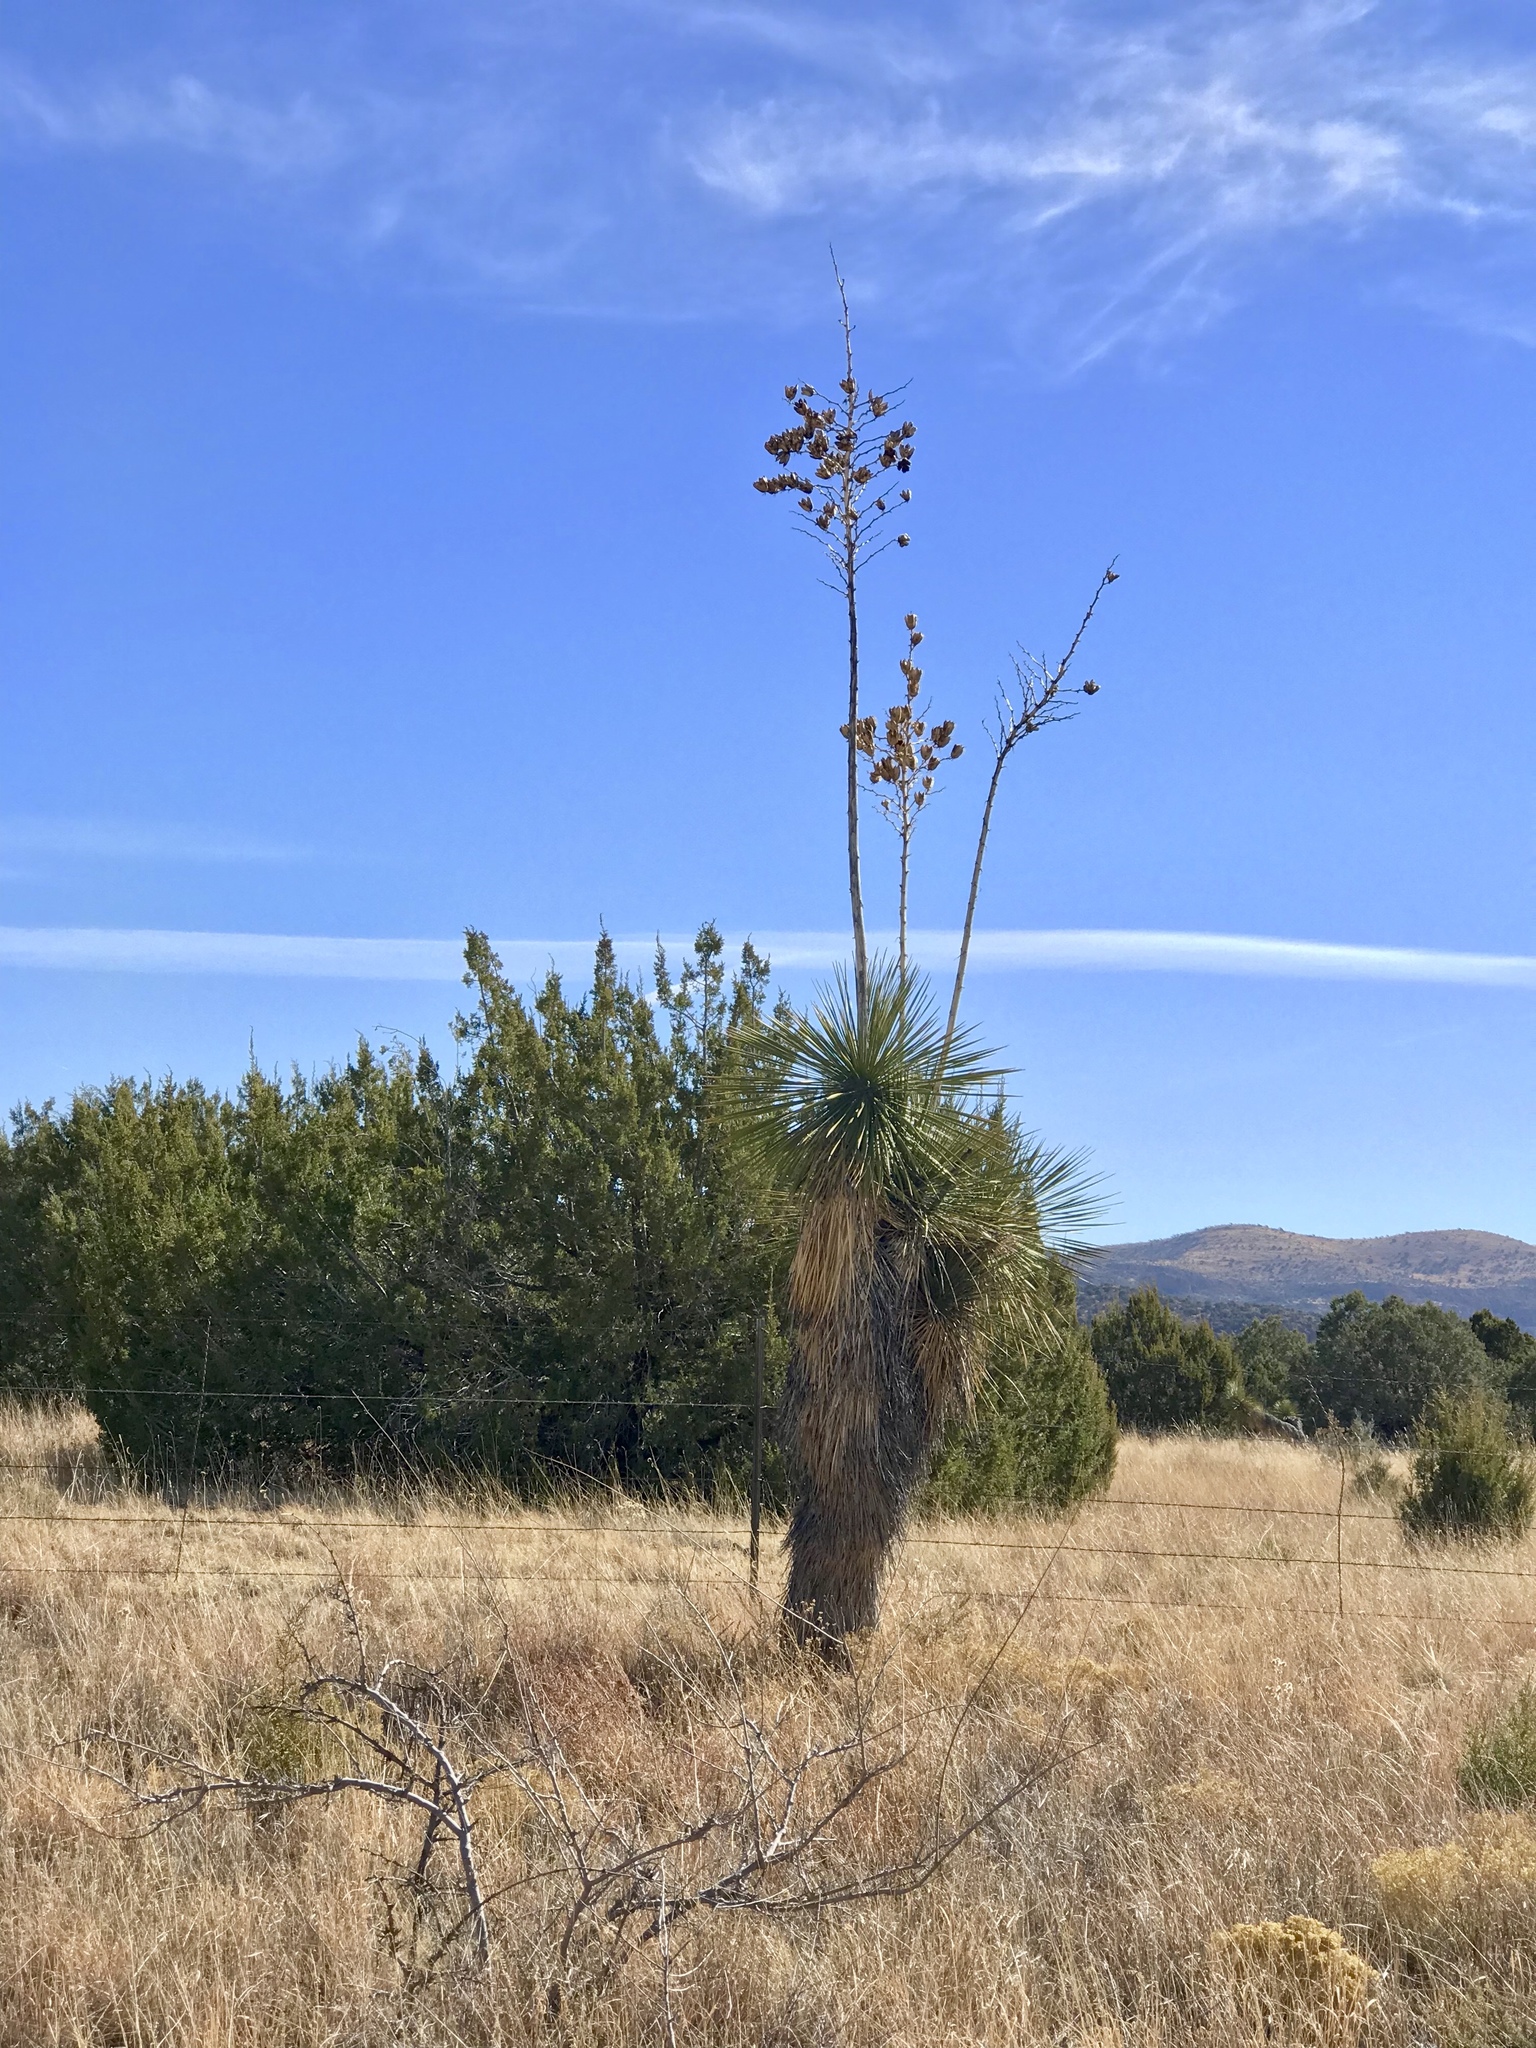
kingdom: Plantae
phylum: Tracheophyta
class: Liliopsida
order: Asparagales
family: Asparagaceae
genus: Yucca
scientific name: Yucca elata
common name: Palmella
